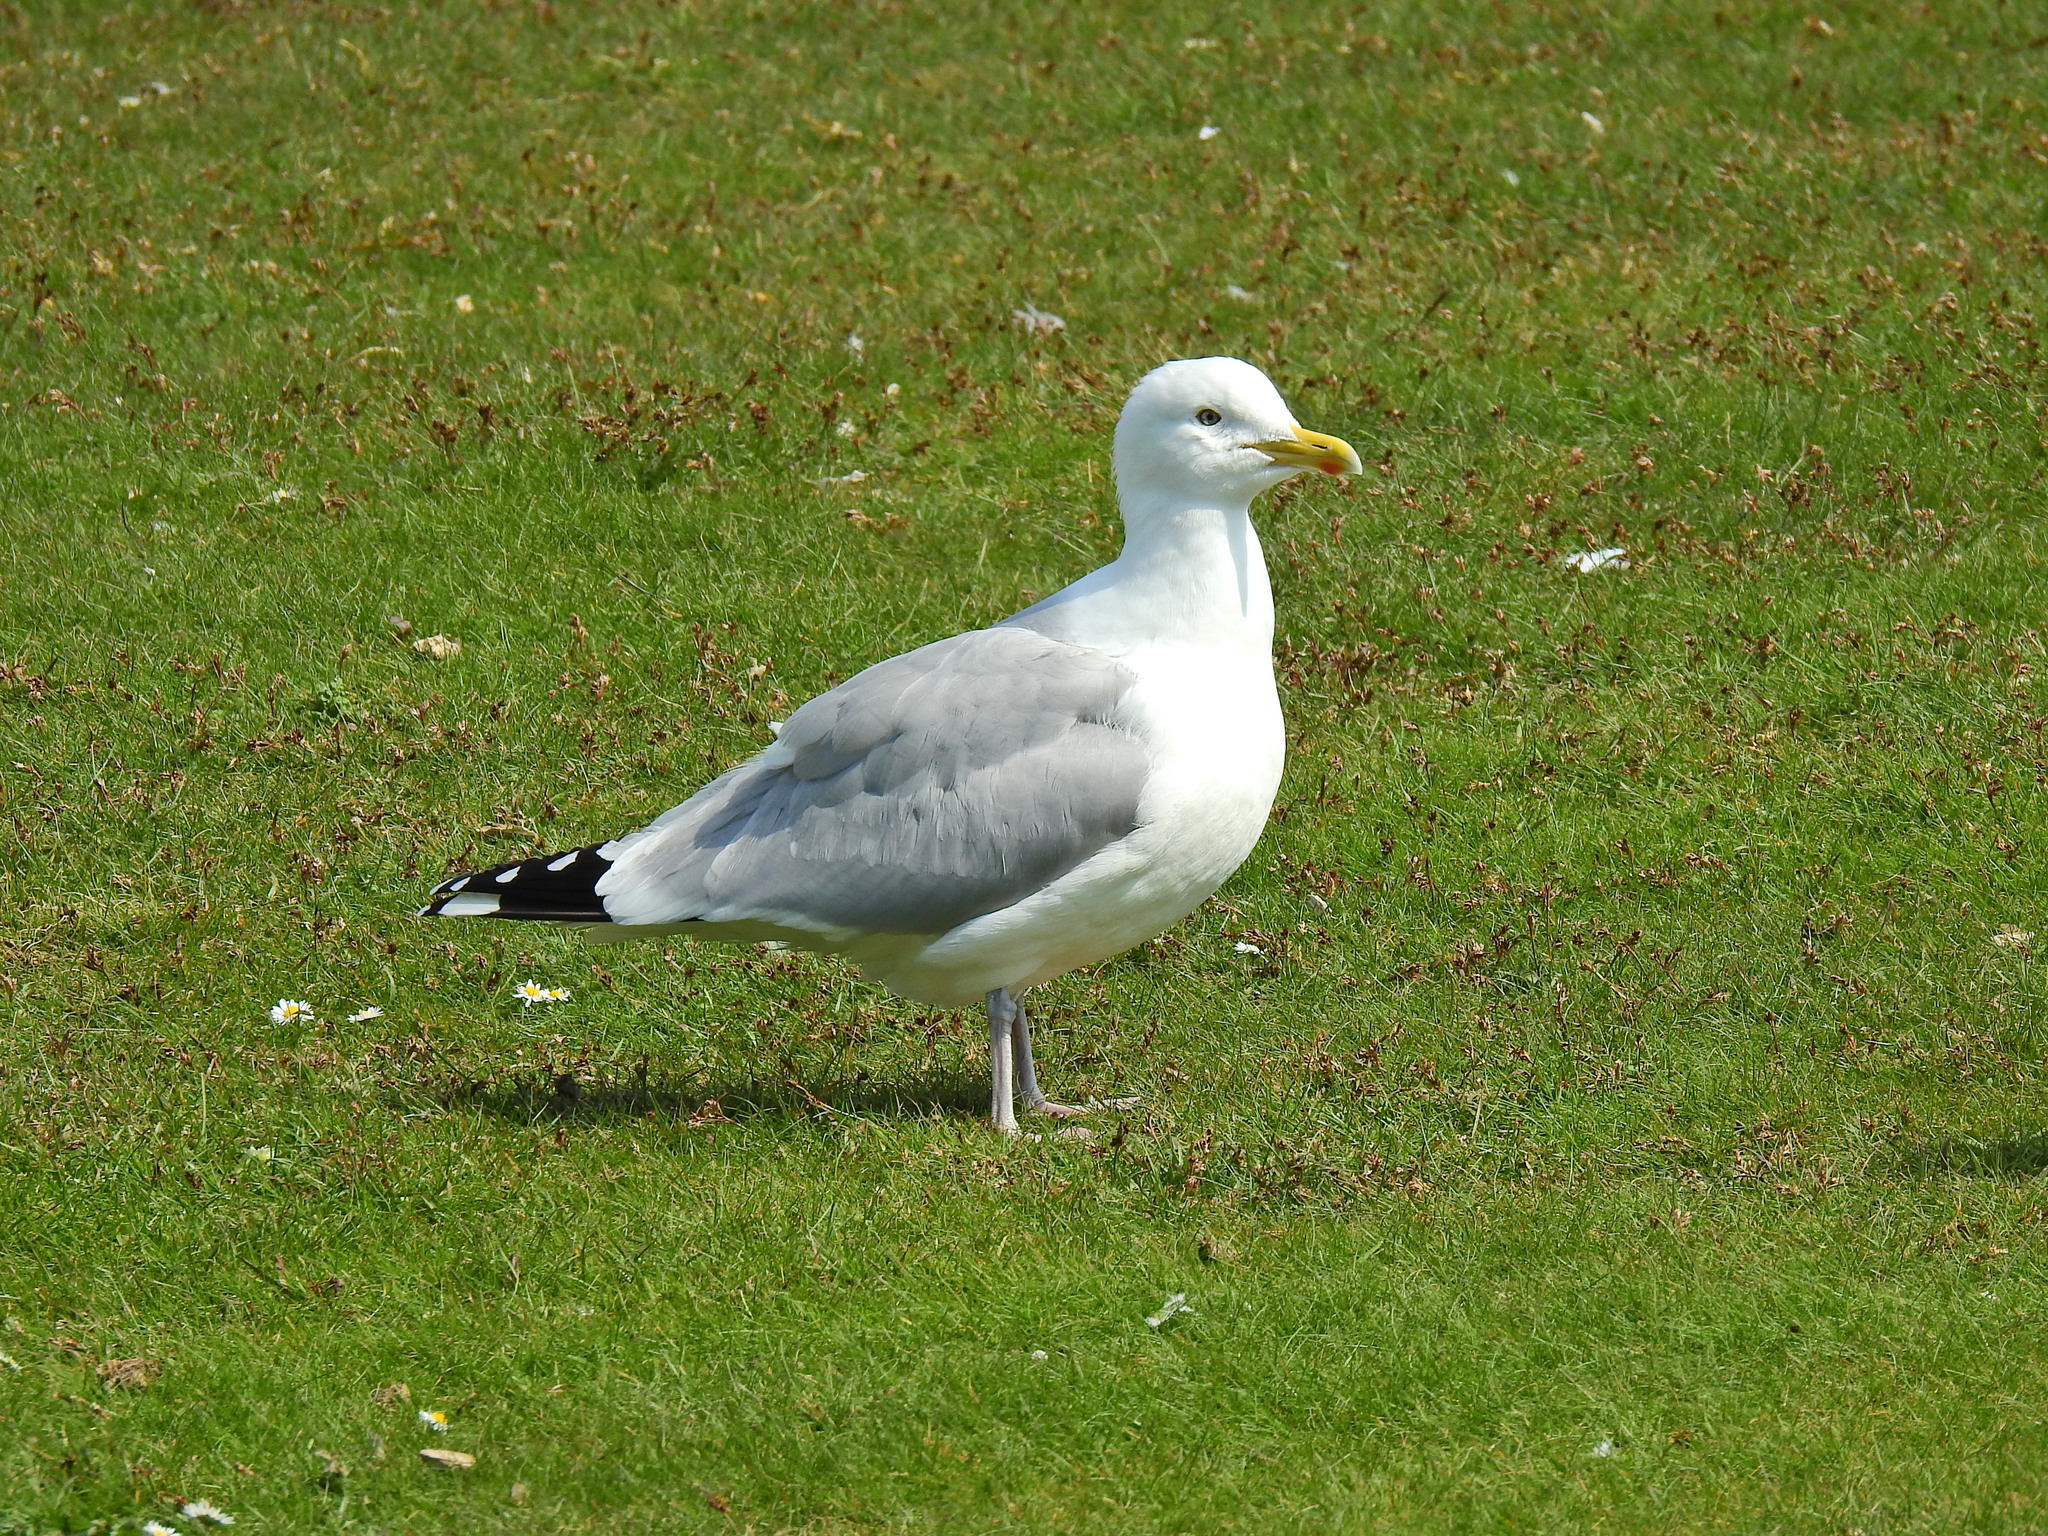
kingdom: Animalia
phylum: Chordata
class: Aves
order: Charadriiformes
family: Laridae
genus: Larus
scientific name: Larus argentatus
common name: Herring gull
